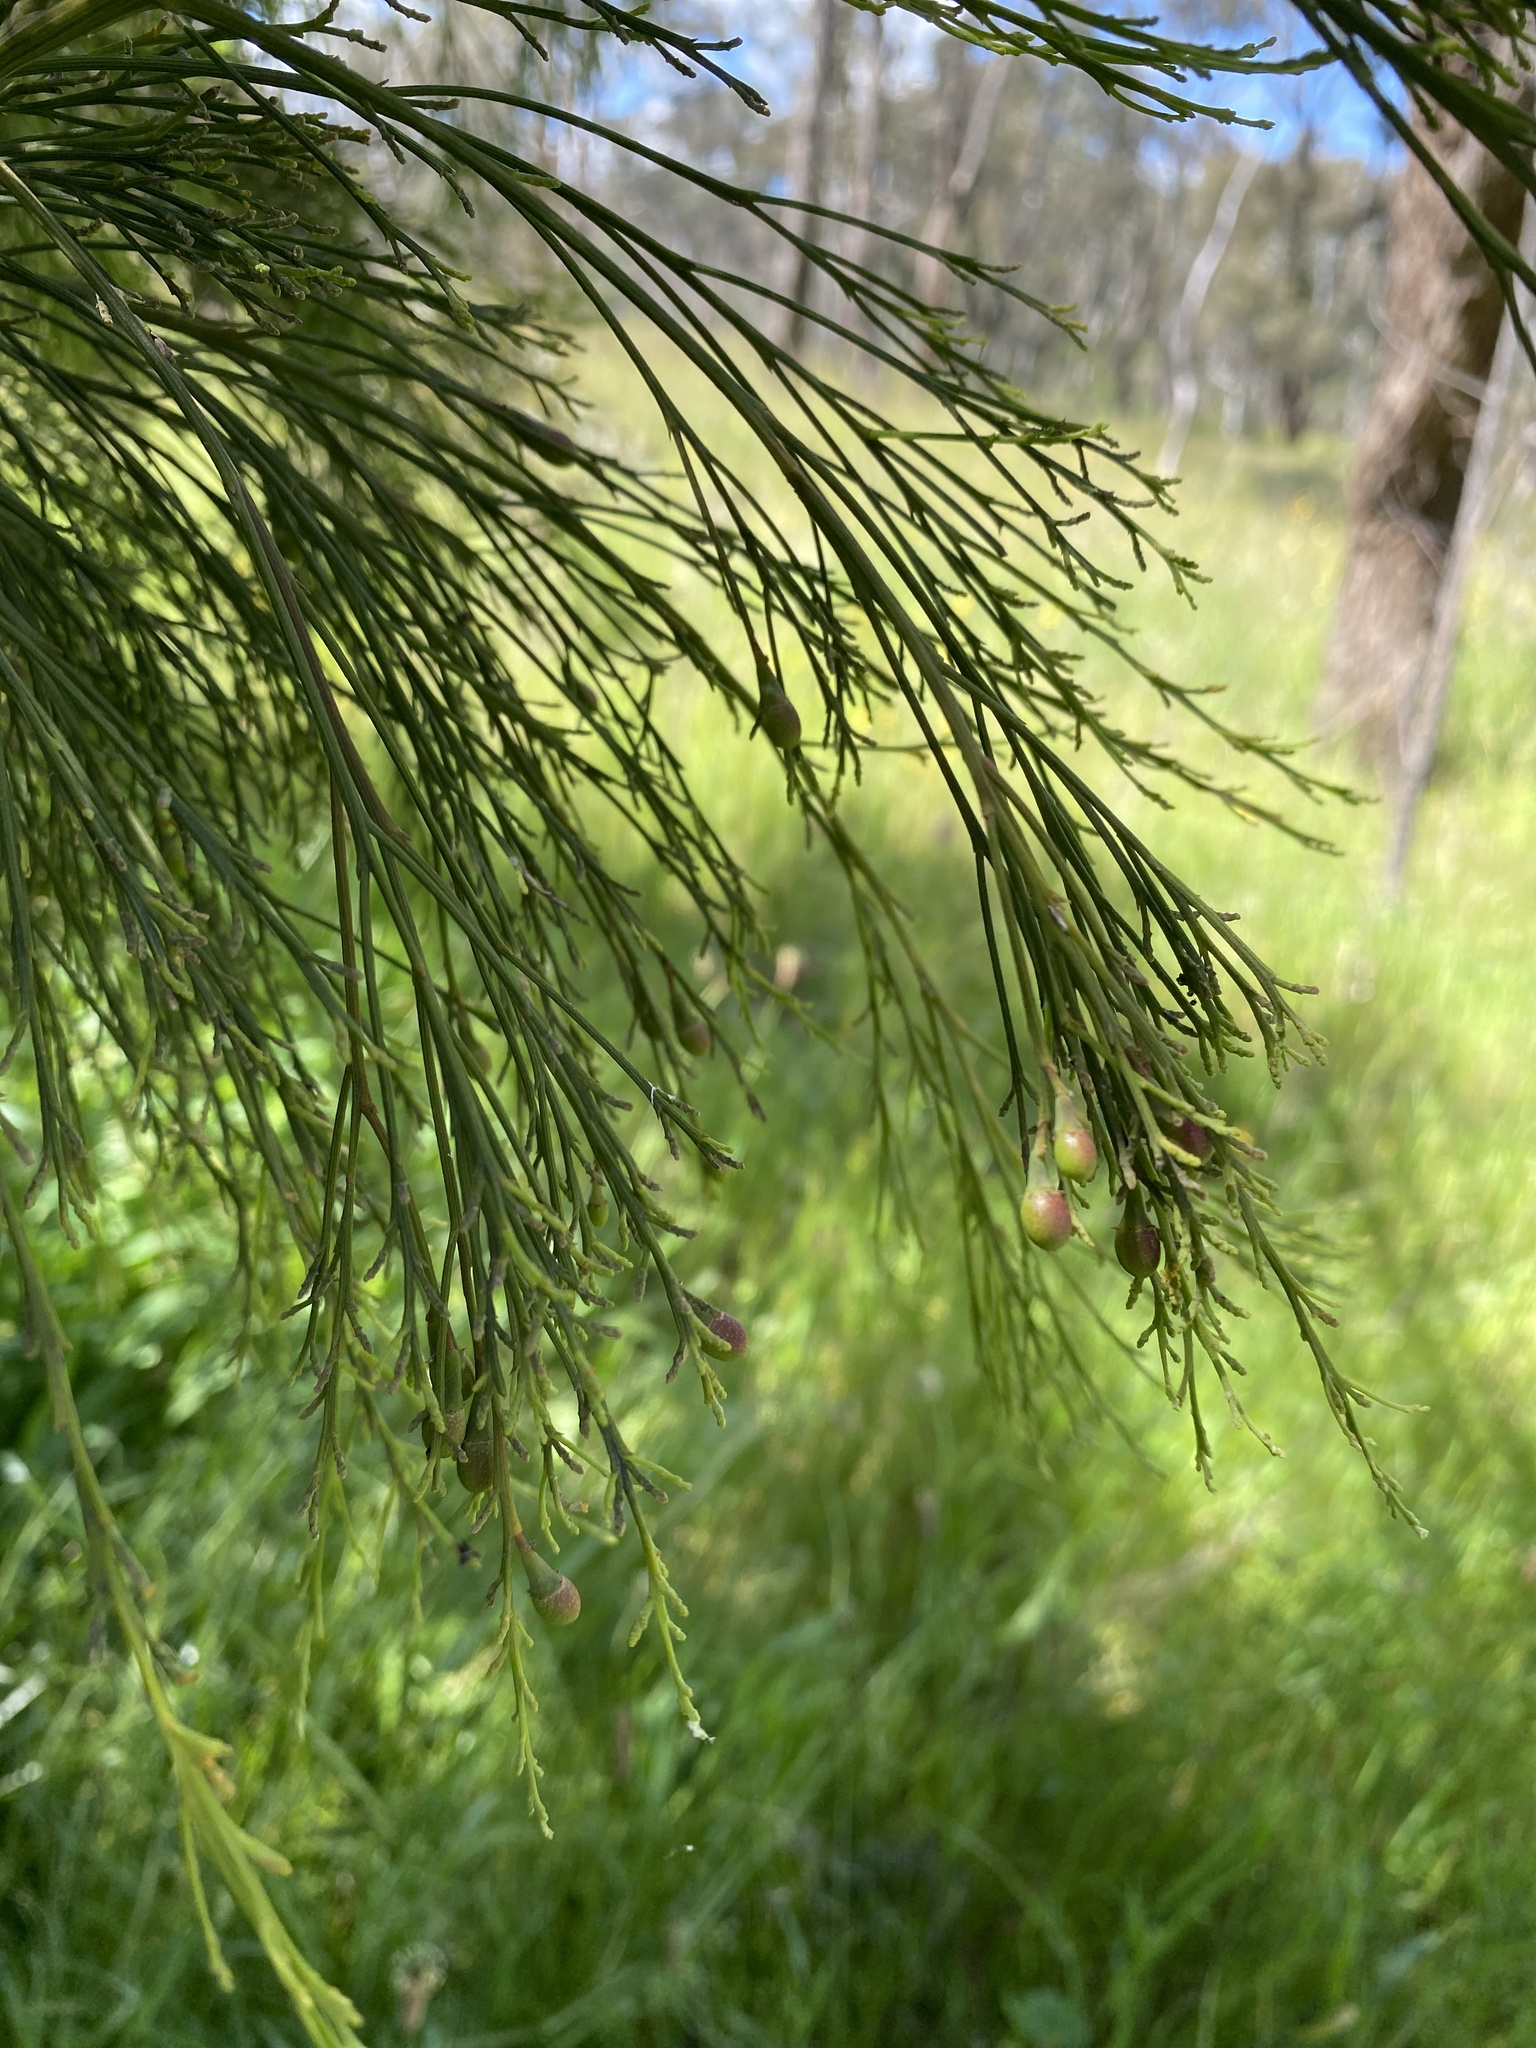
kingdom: Plantae
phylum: Tracheophyta
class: Magnoliopsida
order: Santalales
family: Santalaceae
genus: Exocarpos
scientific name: Exocarpos cupressiformis
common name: Cherry ballart
